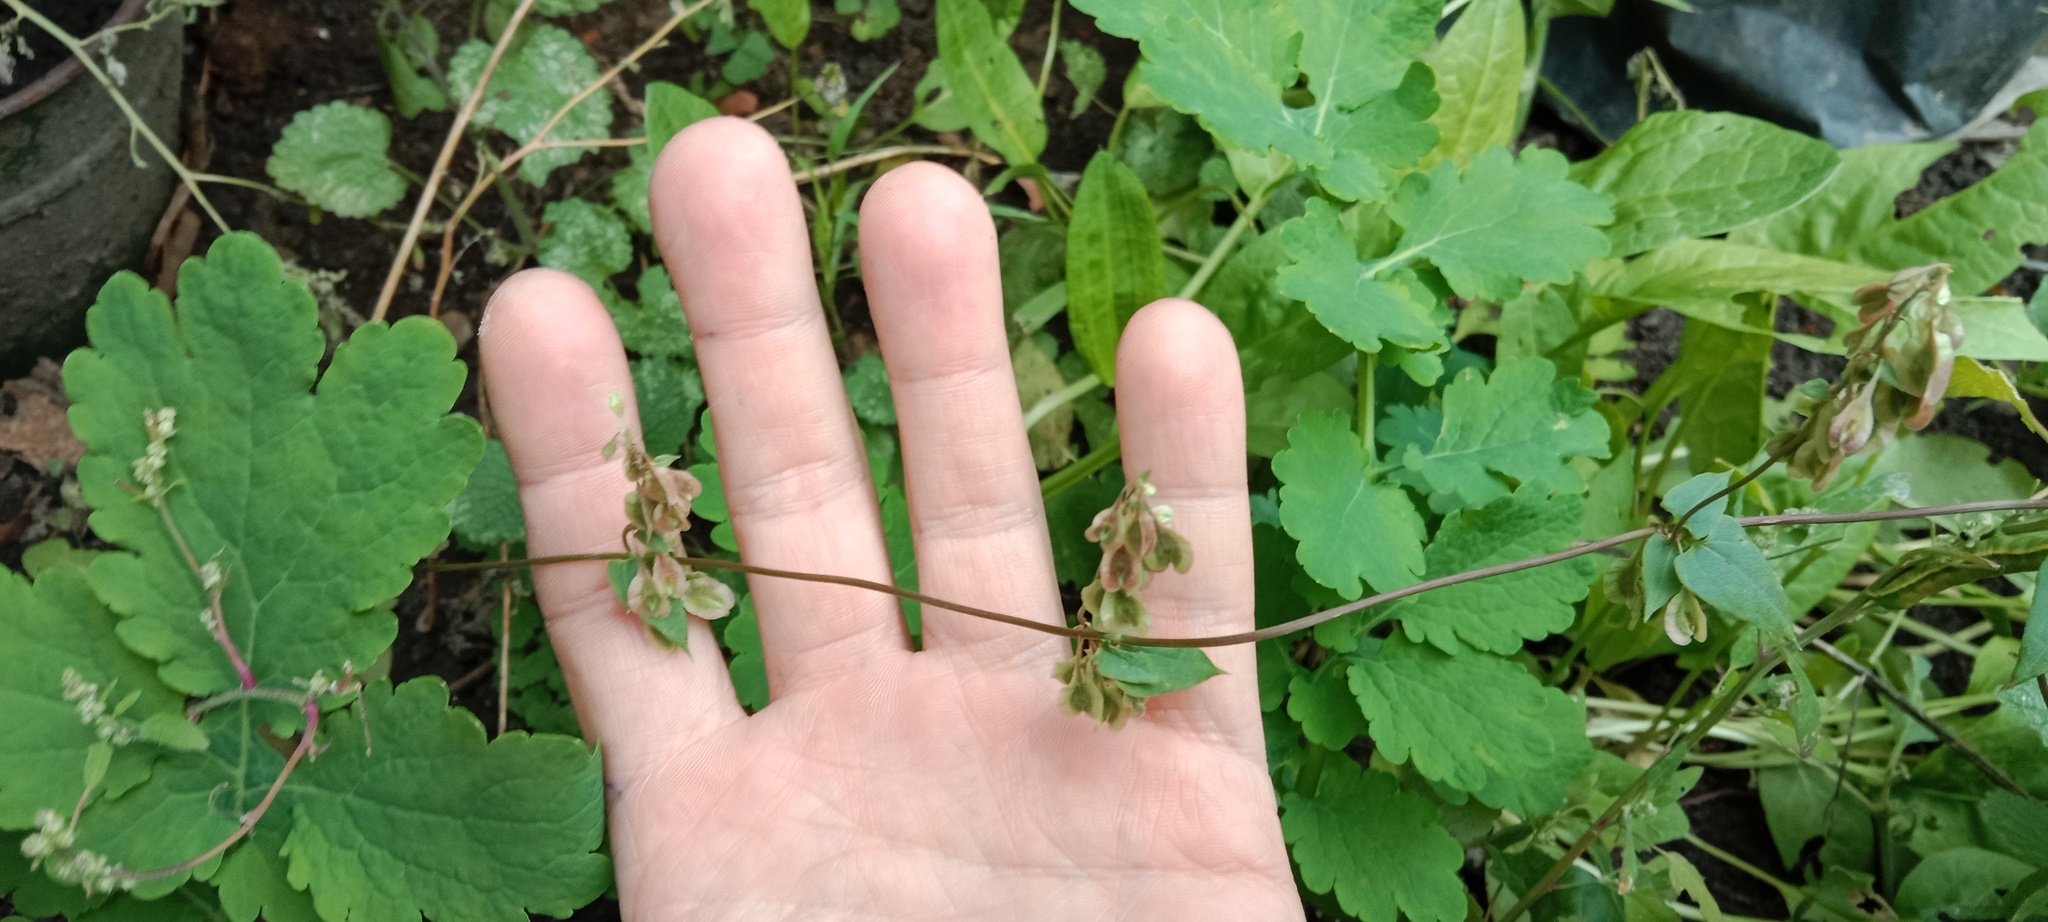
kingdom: Plantae
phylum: Tracheophyta
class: Magnoliopsida
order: Ranunculales
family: Papaveraceae
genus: Chelidonium
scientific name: Chelidonium majus
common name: Greater celandine
